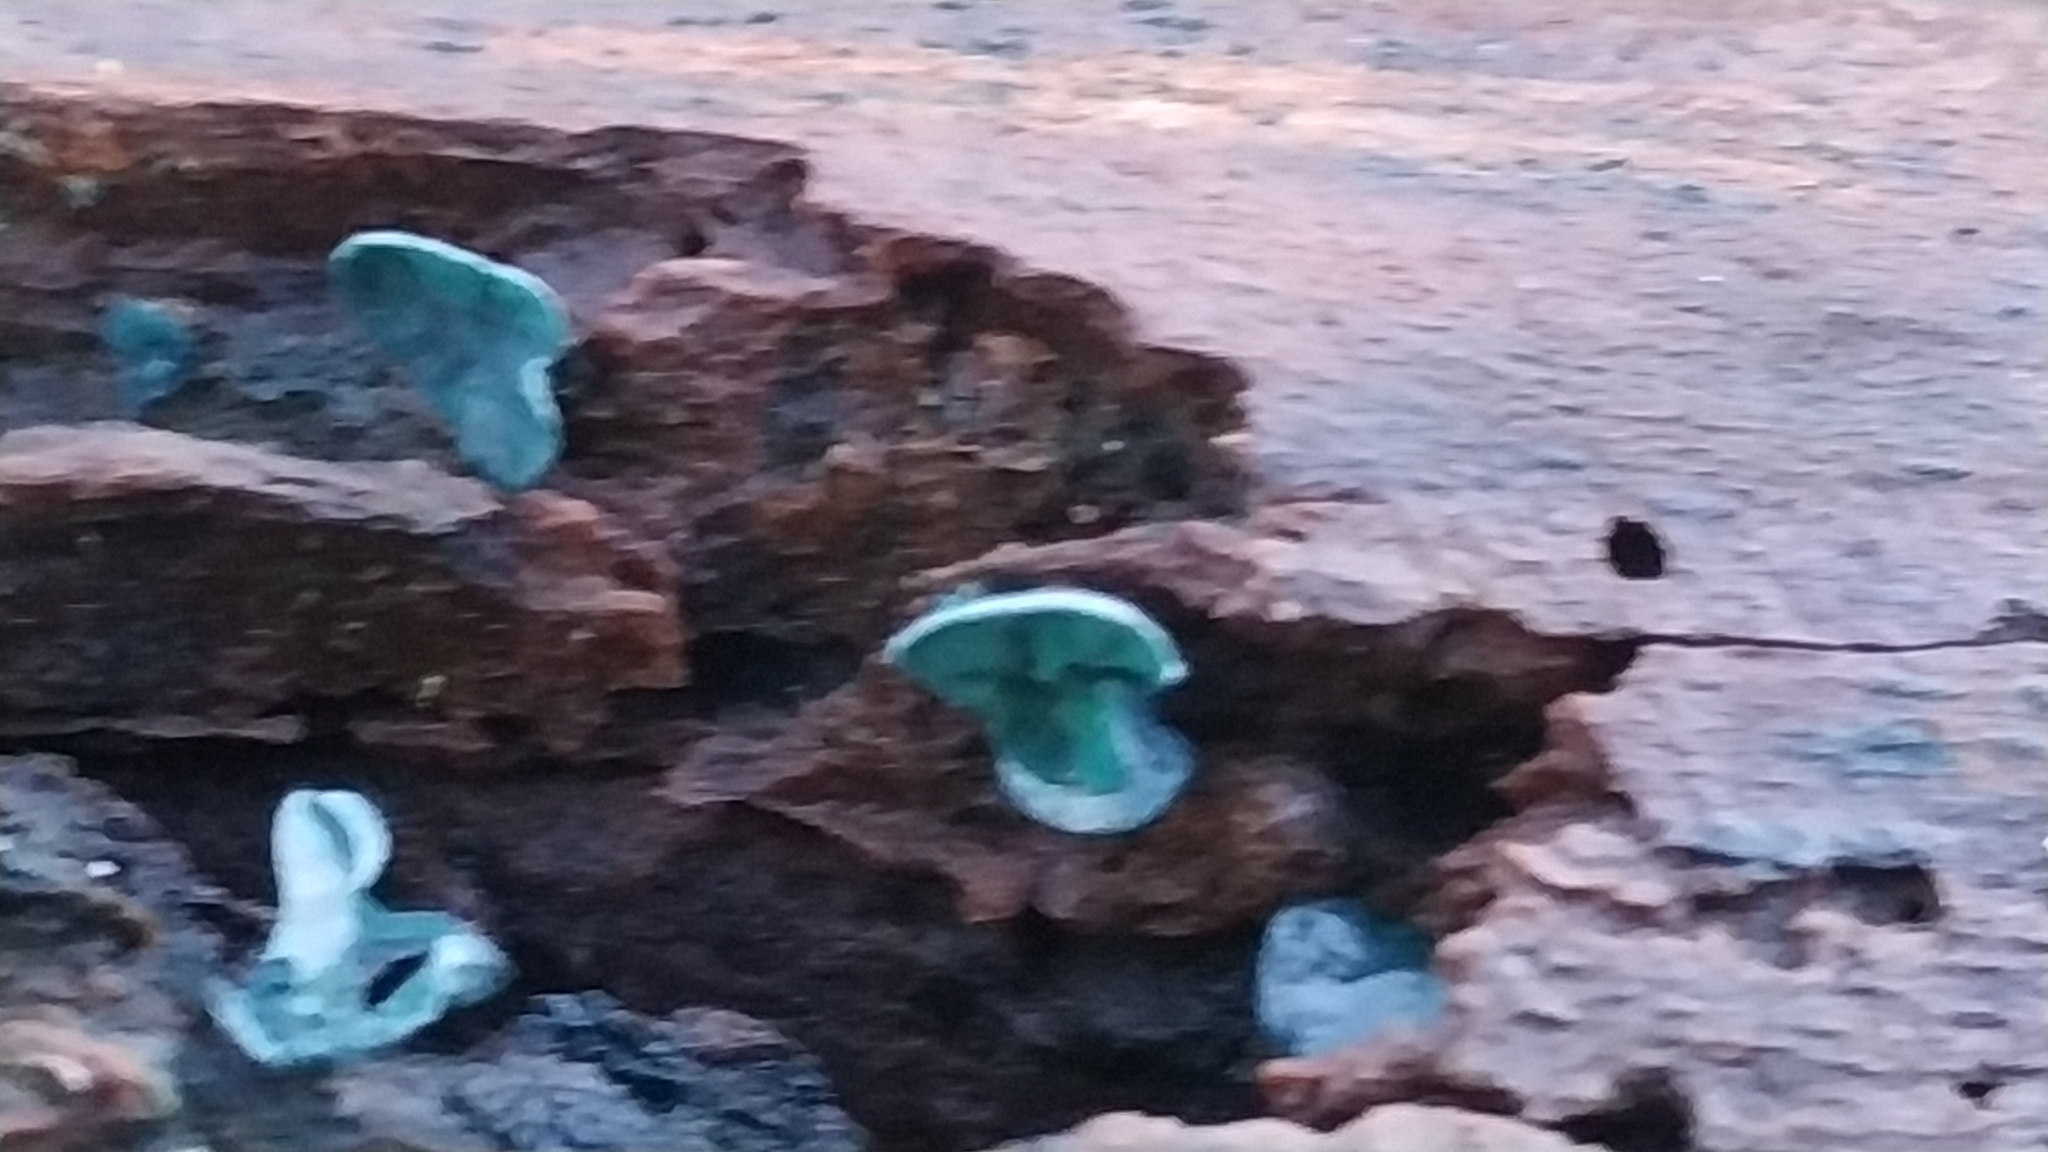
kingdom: Fungi
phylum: Ascomycota
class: Leotiomycetes
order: Helotiales
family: Chlorociboriaceae
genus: Chlorociboria
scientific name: Chlorociboria aeruginascens
